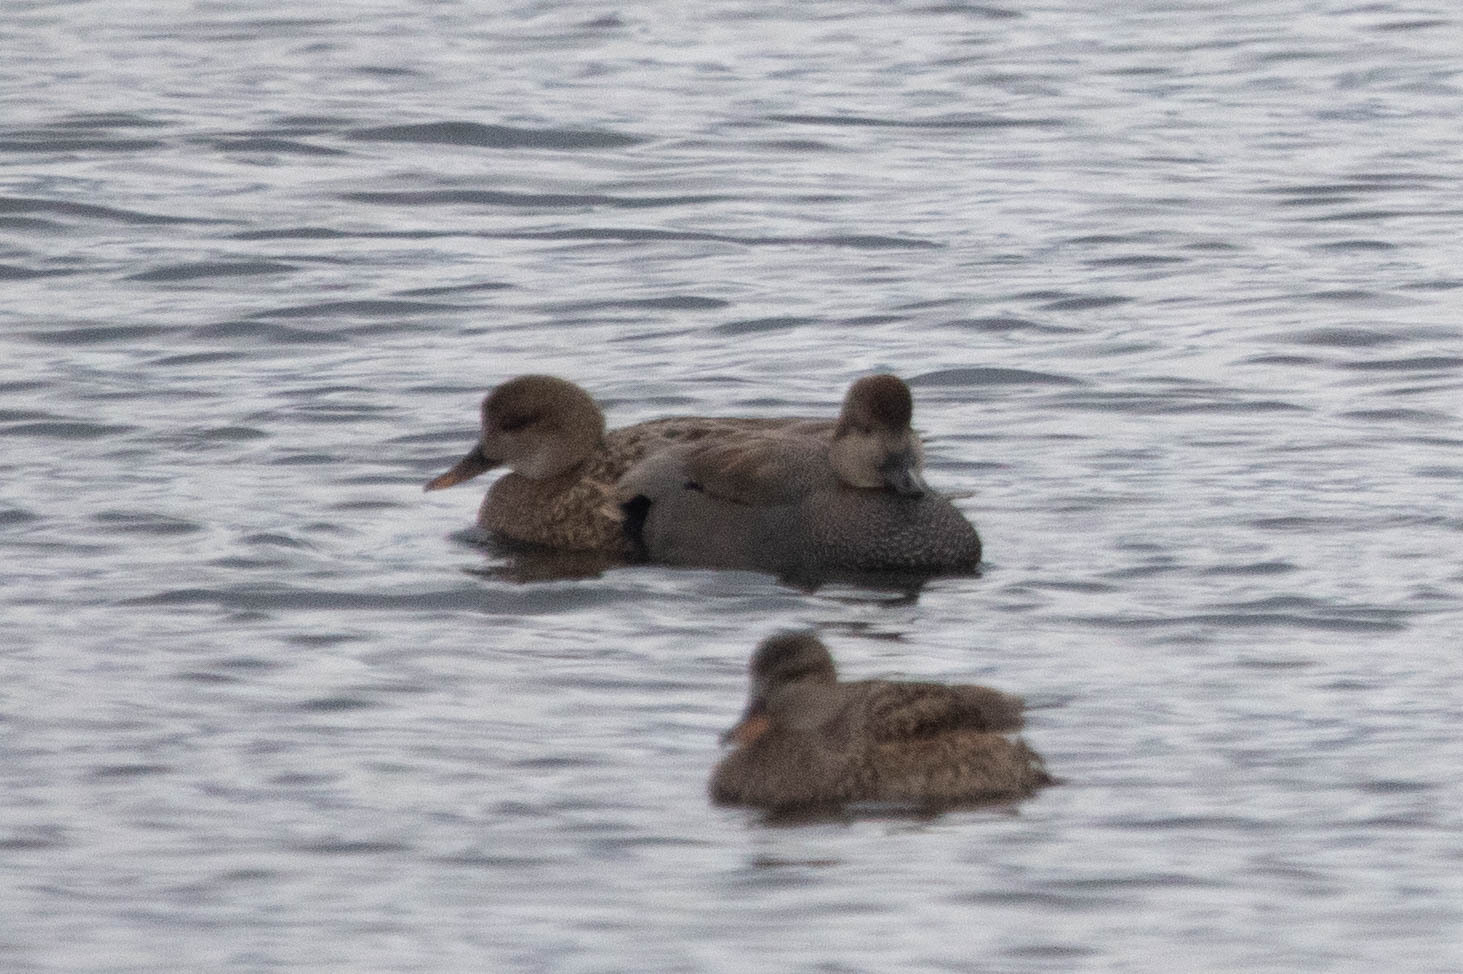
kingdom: Animalia
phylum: Chordata
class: Aves
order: Anseriformes
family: Anatidae
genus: Mareca
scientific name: Mareca strepera
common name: Gadwall
